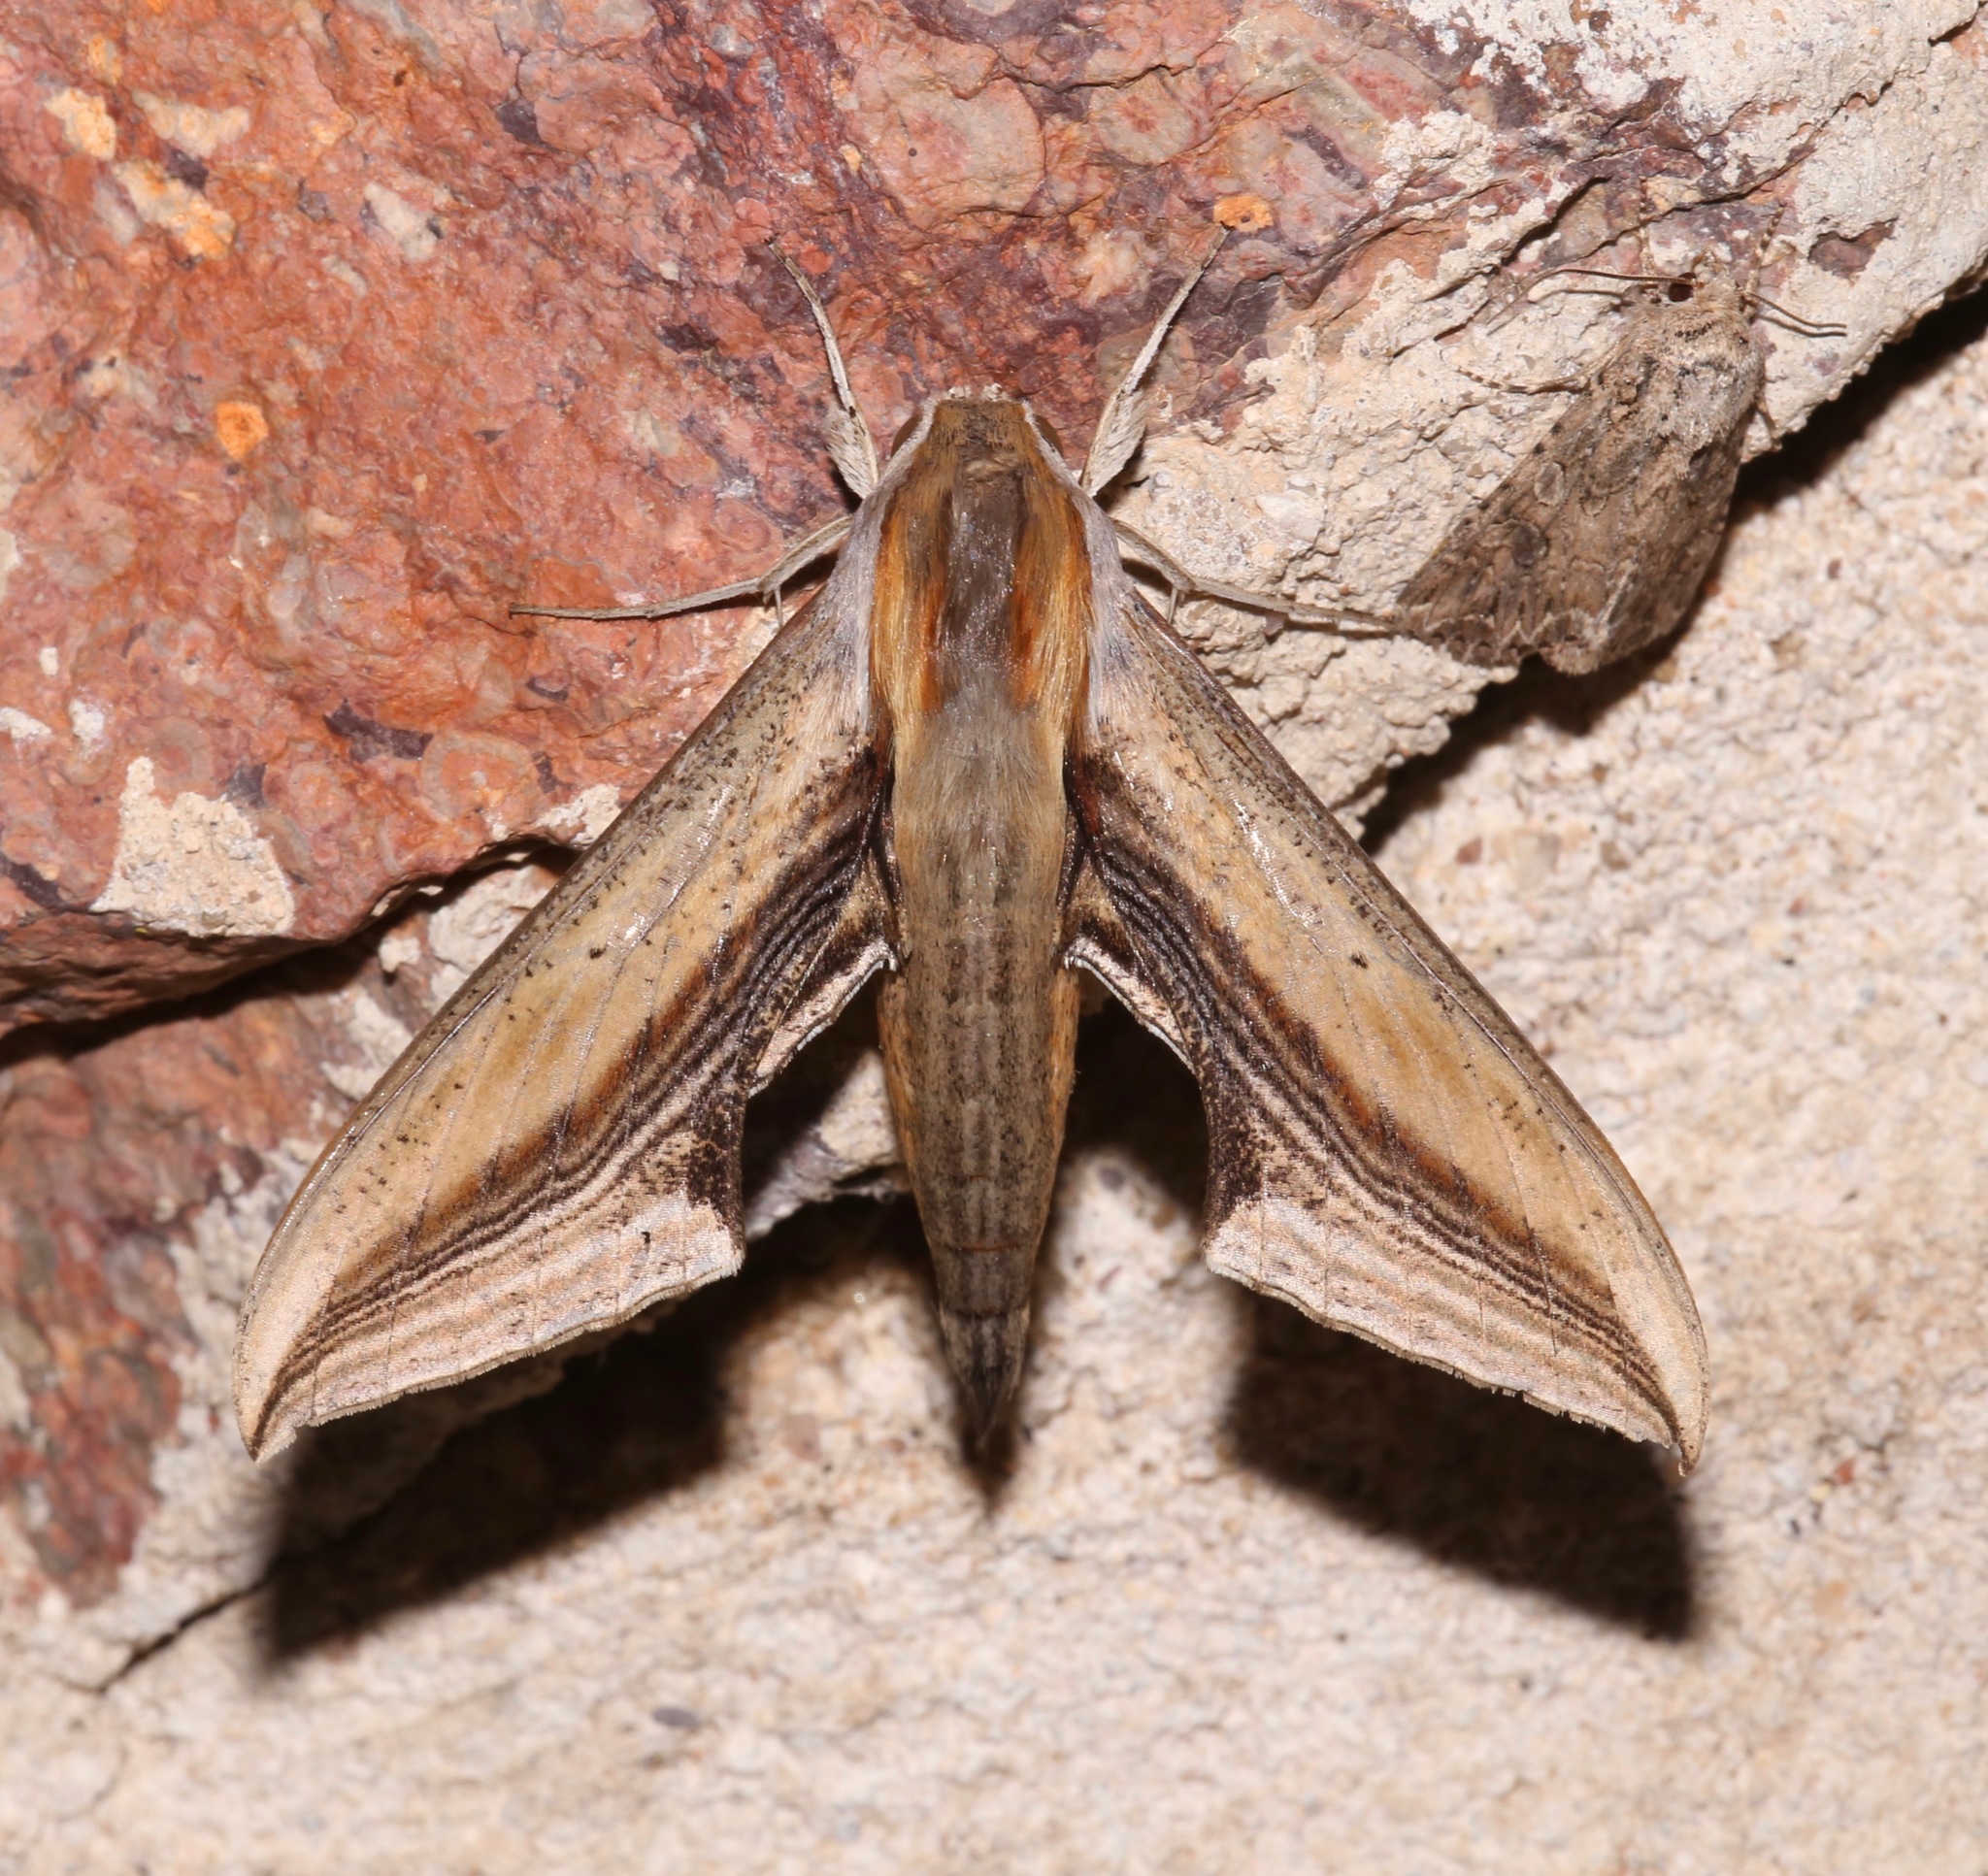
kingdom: Animalia
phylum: Arthropoda
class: Insecta
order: Lepidoptera
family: Sphingidae
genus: Xylophanes
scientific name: Xylophanes falco
